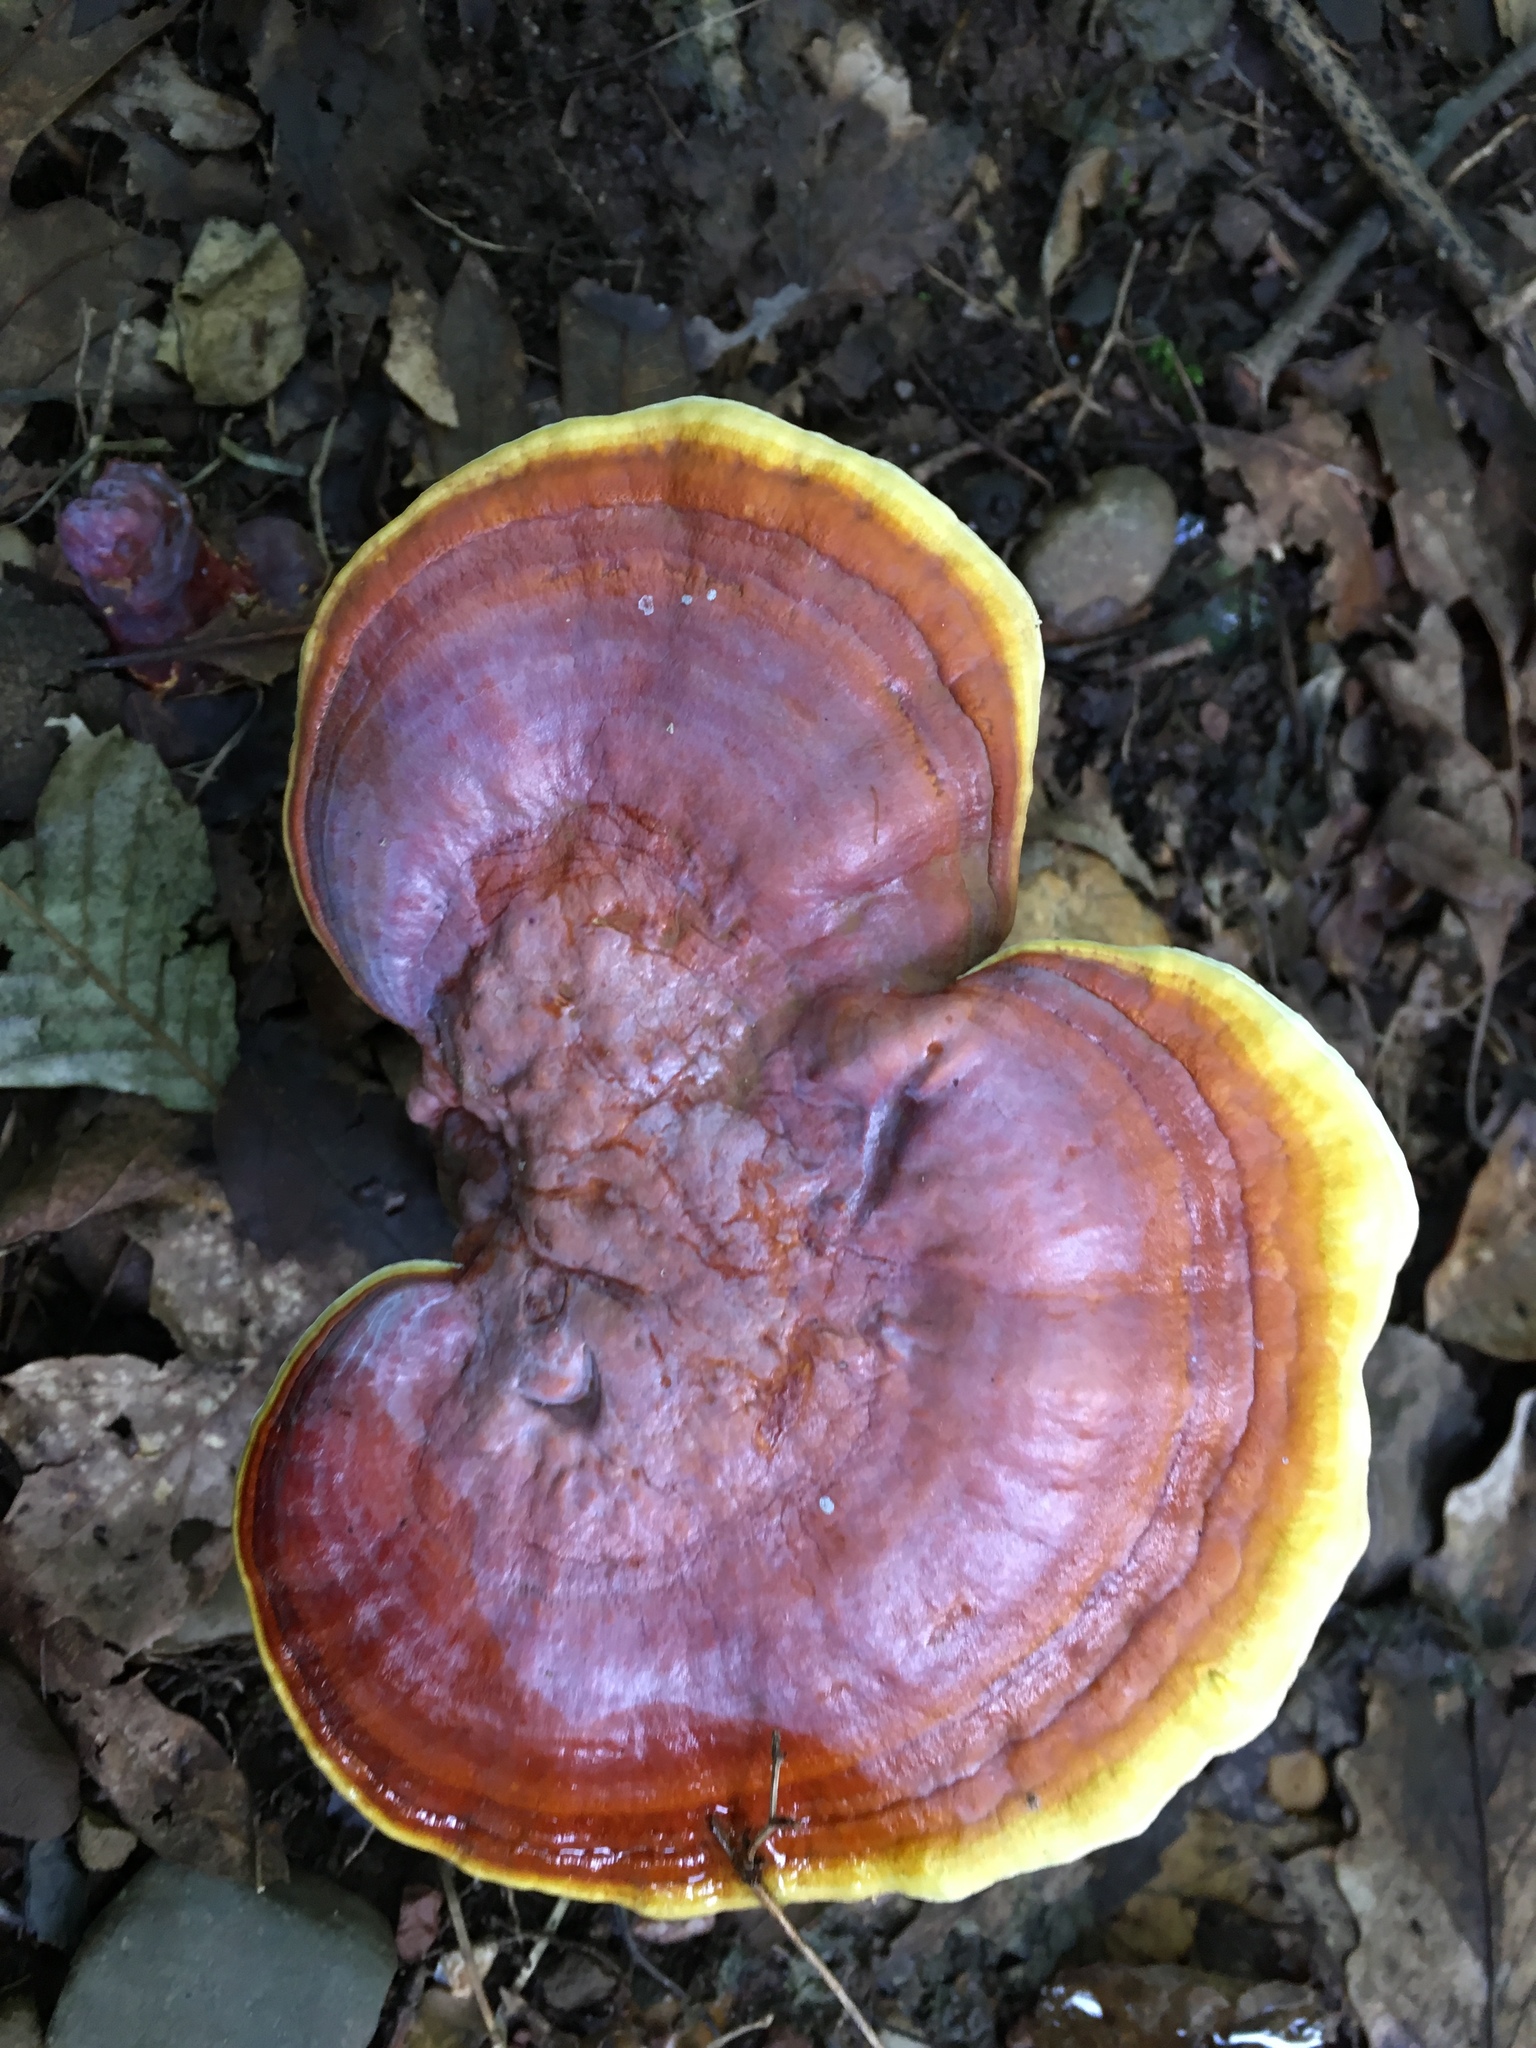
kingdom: Fungi
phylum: Basidiomycota
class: Agaricomycetes
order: Polyporales
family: Polyporaceae
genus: Ganoderma
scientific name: Ganoderma tsugae
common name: Hemlock varnish shelf
